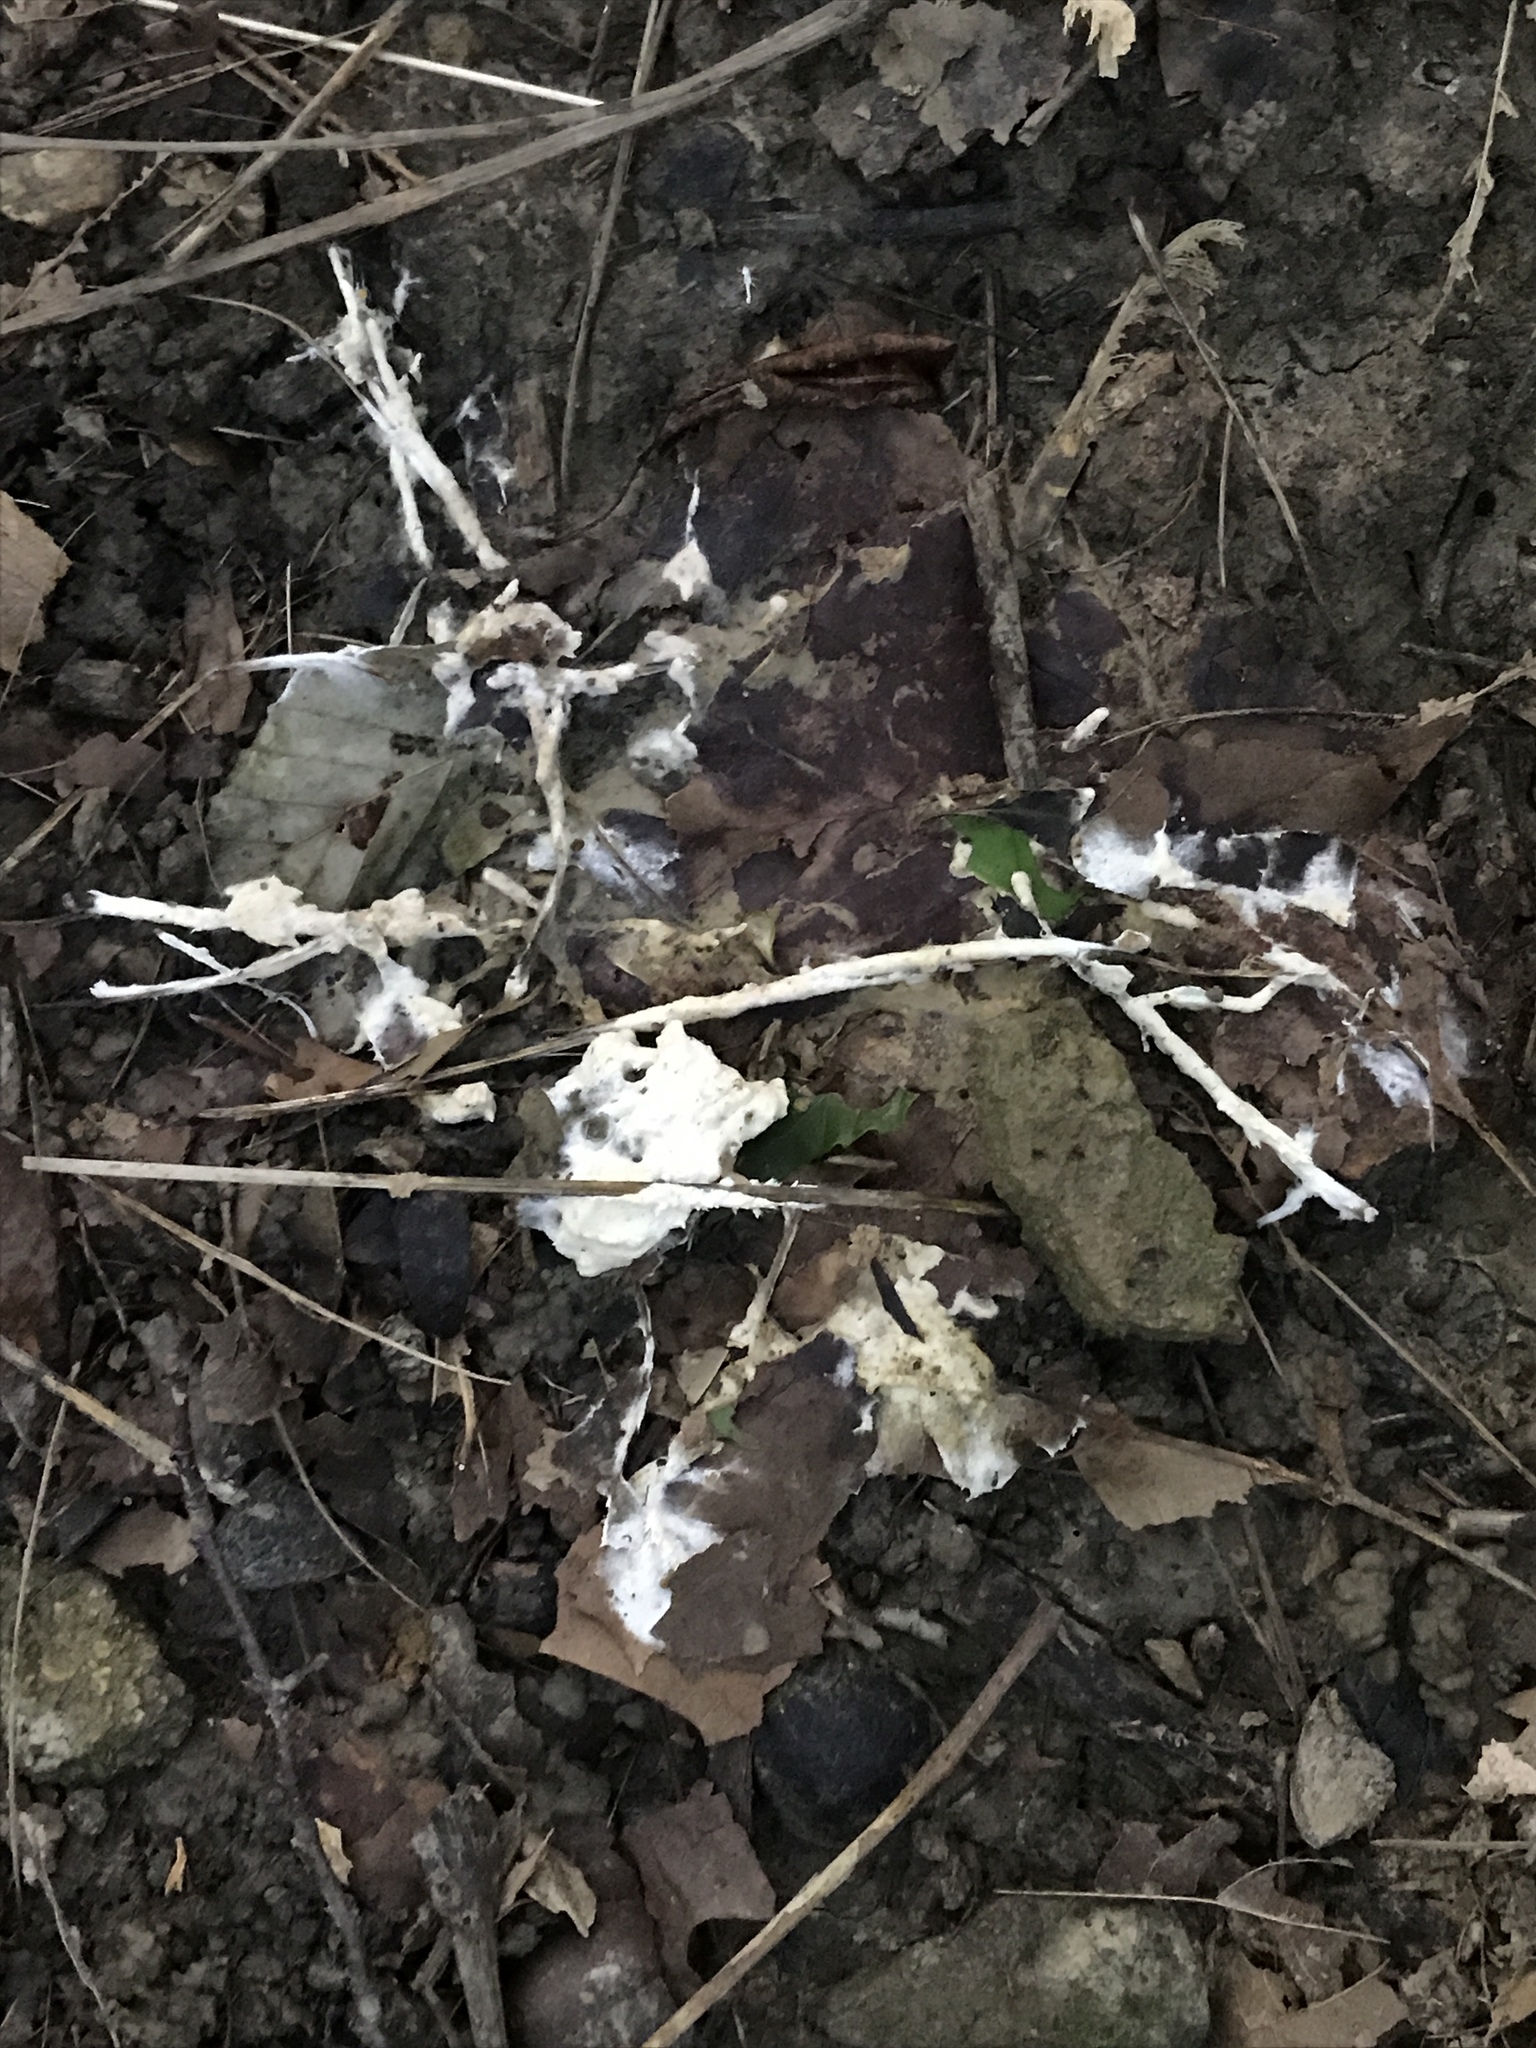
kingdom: Fungi
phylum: Basidiomycota
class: Agaricomycetes
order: Sebacinales
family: Sebacinaceae
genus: Sebacina
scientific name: Sebacina incrustans
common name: Enveloping crust
